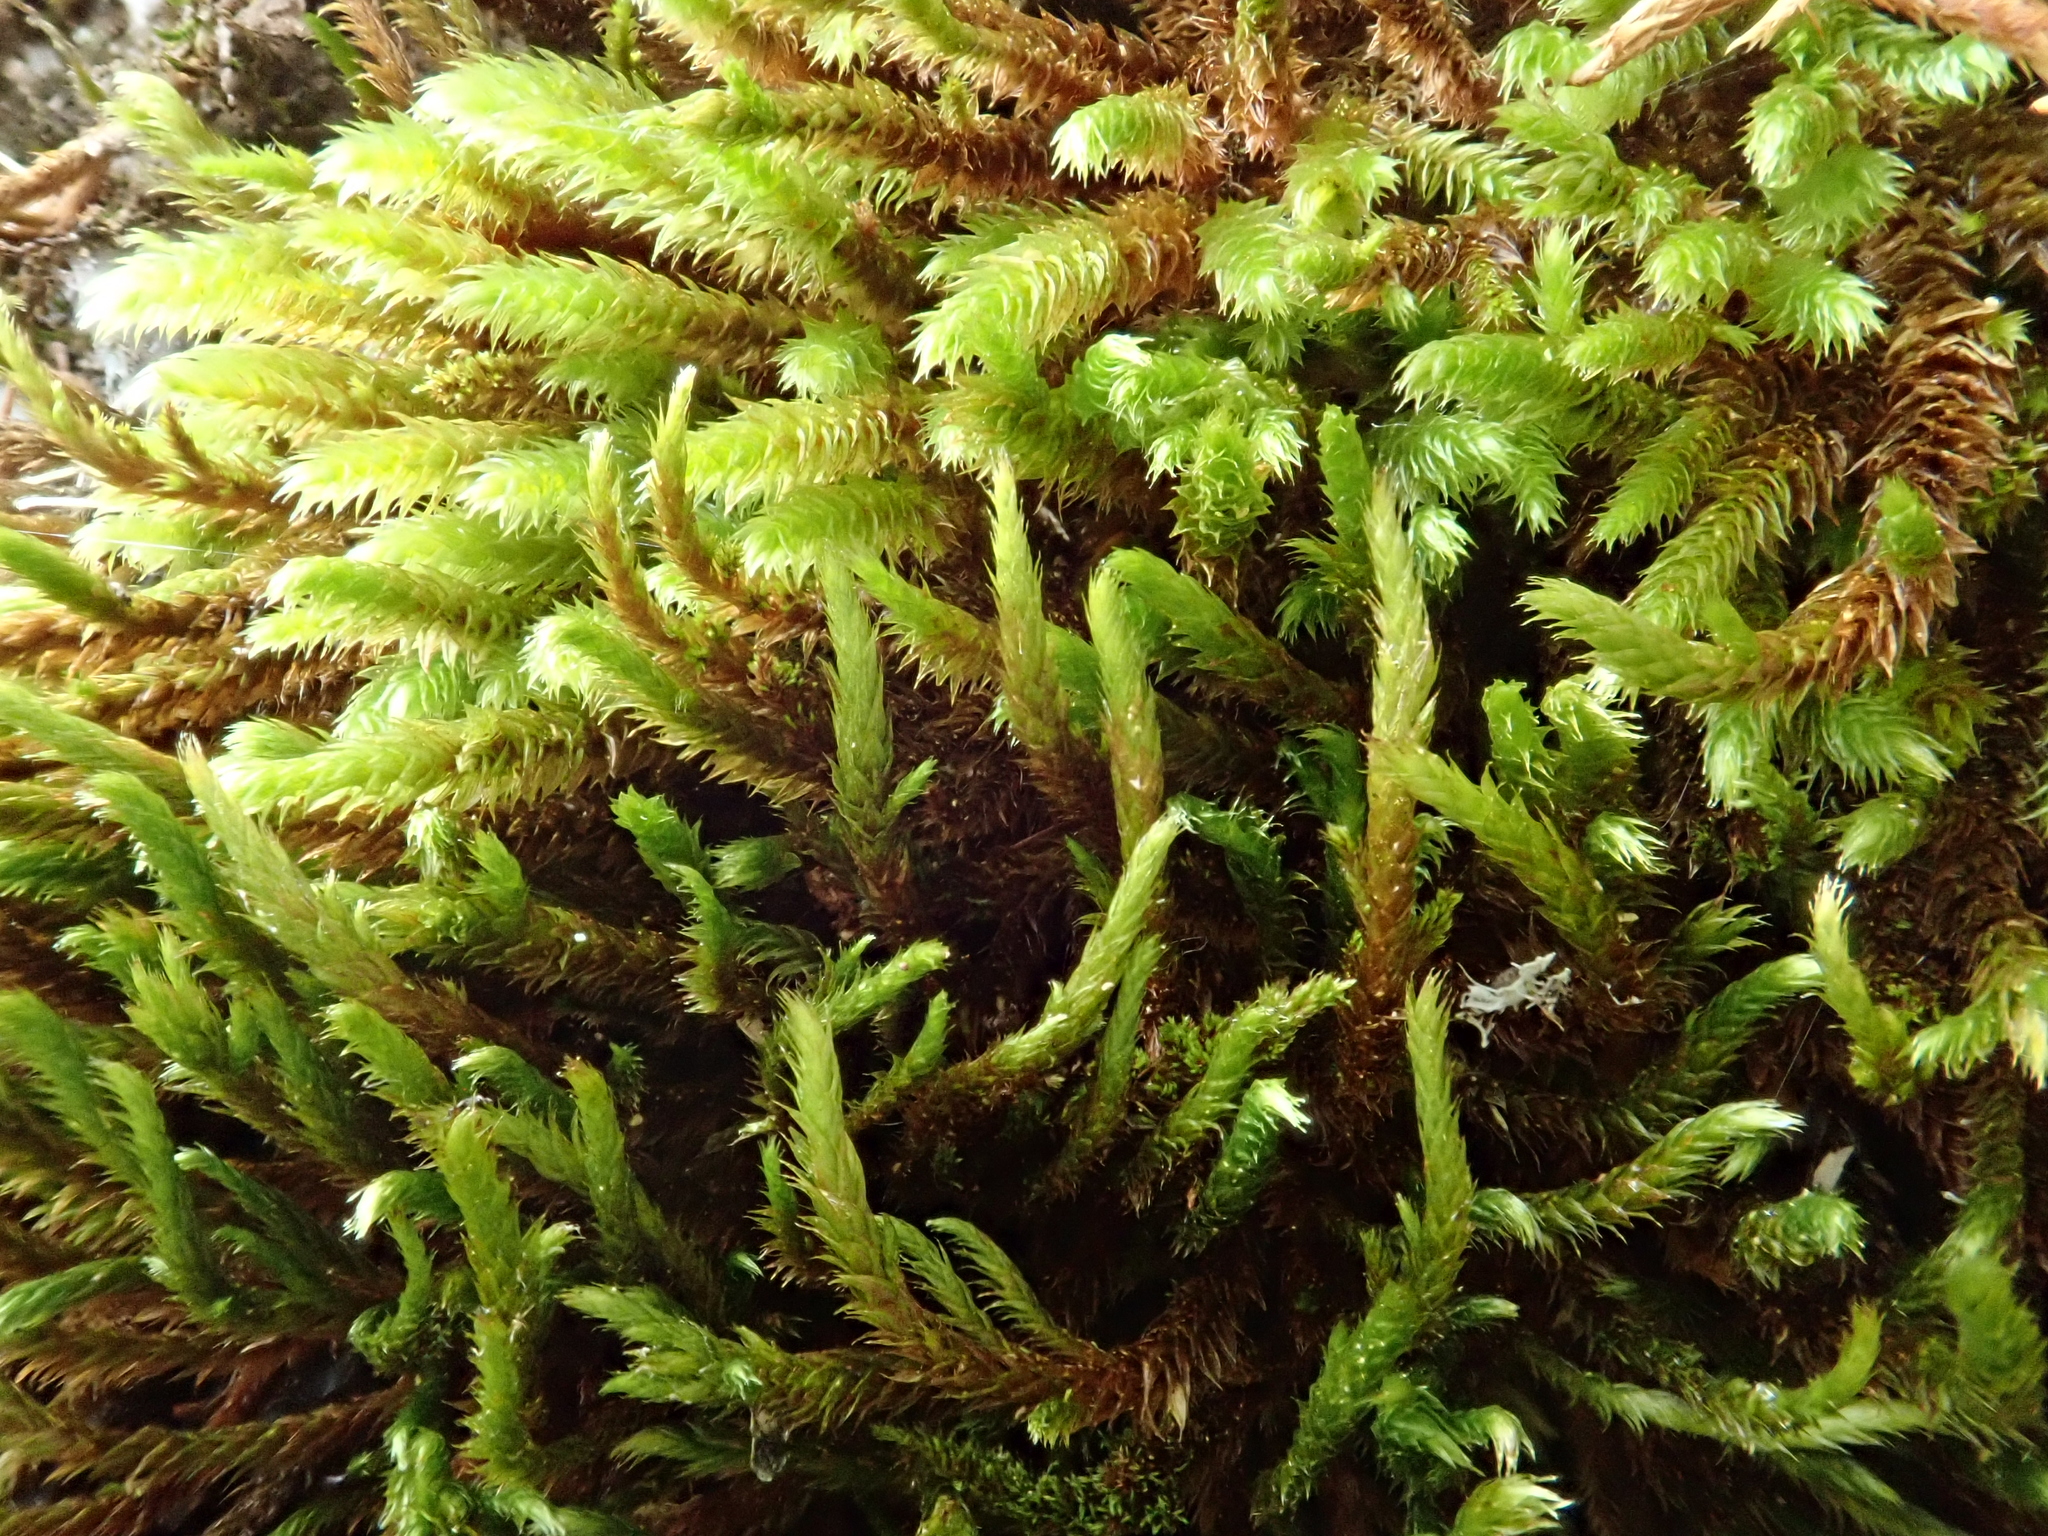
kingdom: Plantae
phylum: Bryophyta
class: Bryopsida
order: Hypnales
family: Leucodontaceae
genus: Leucodon
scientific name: Leucodon sciuroides
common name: Squirrel-tail moss
